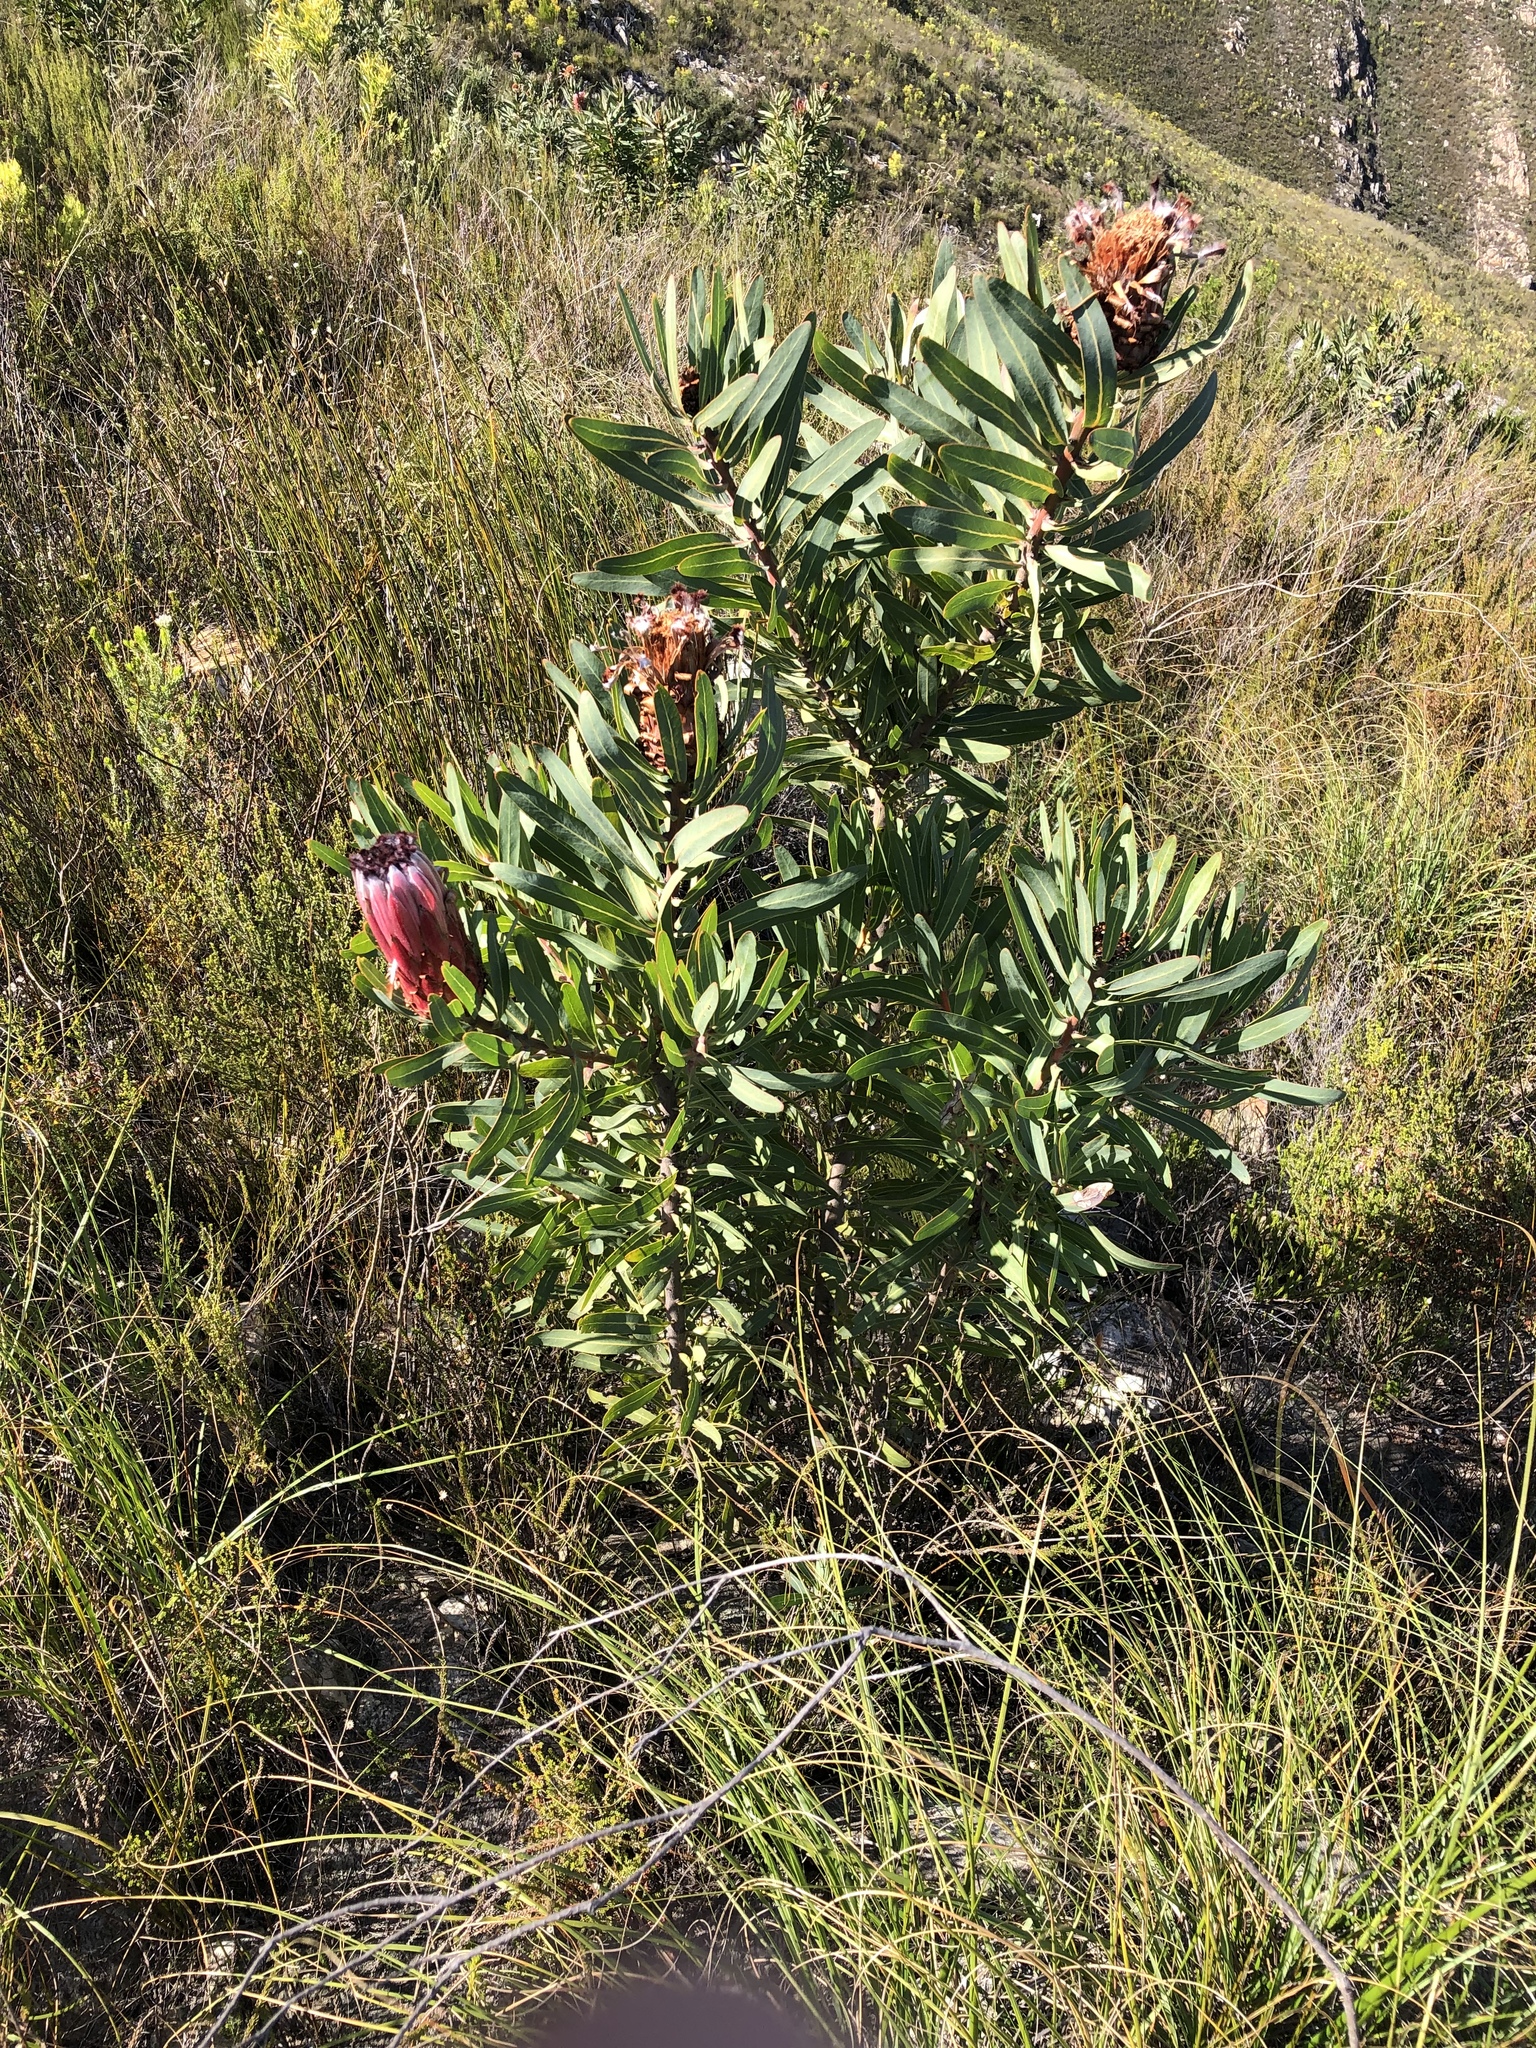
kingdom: Plantae
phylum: Tracheophyta
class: Magnoliopsida
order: Proteales
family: Proteaceae
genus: Protea
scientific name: Protea neriifolia
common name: Blue sugarbush
